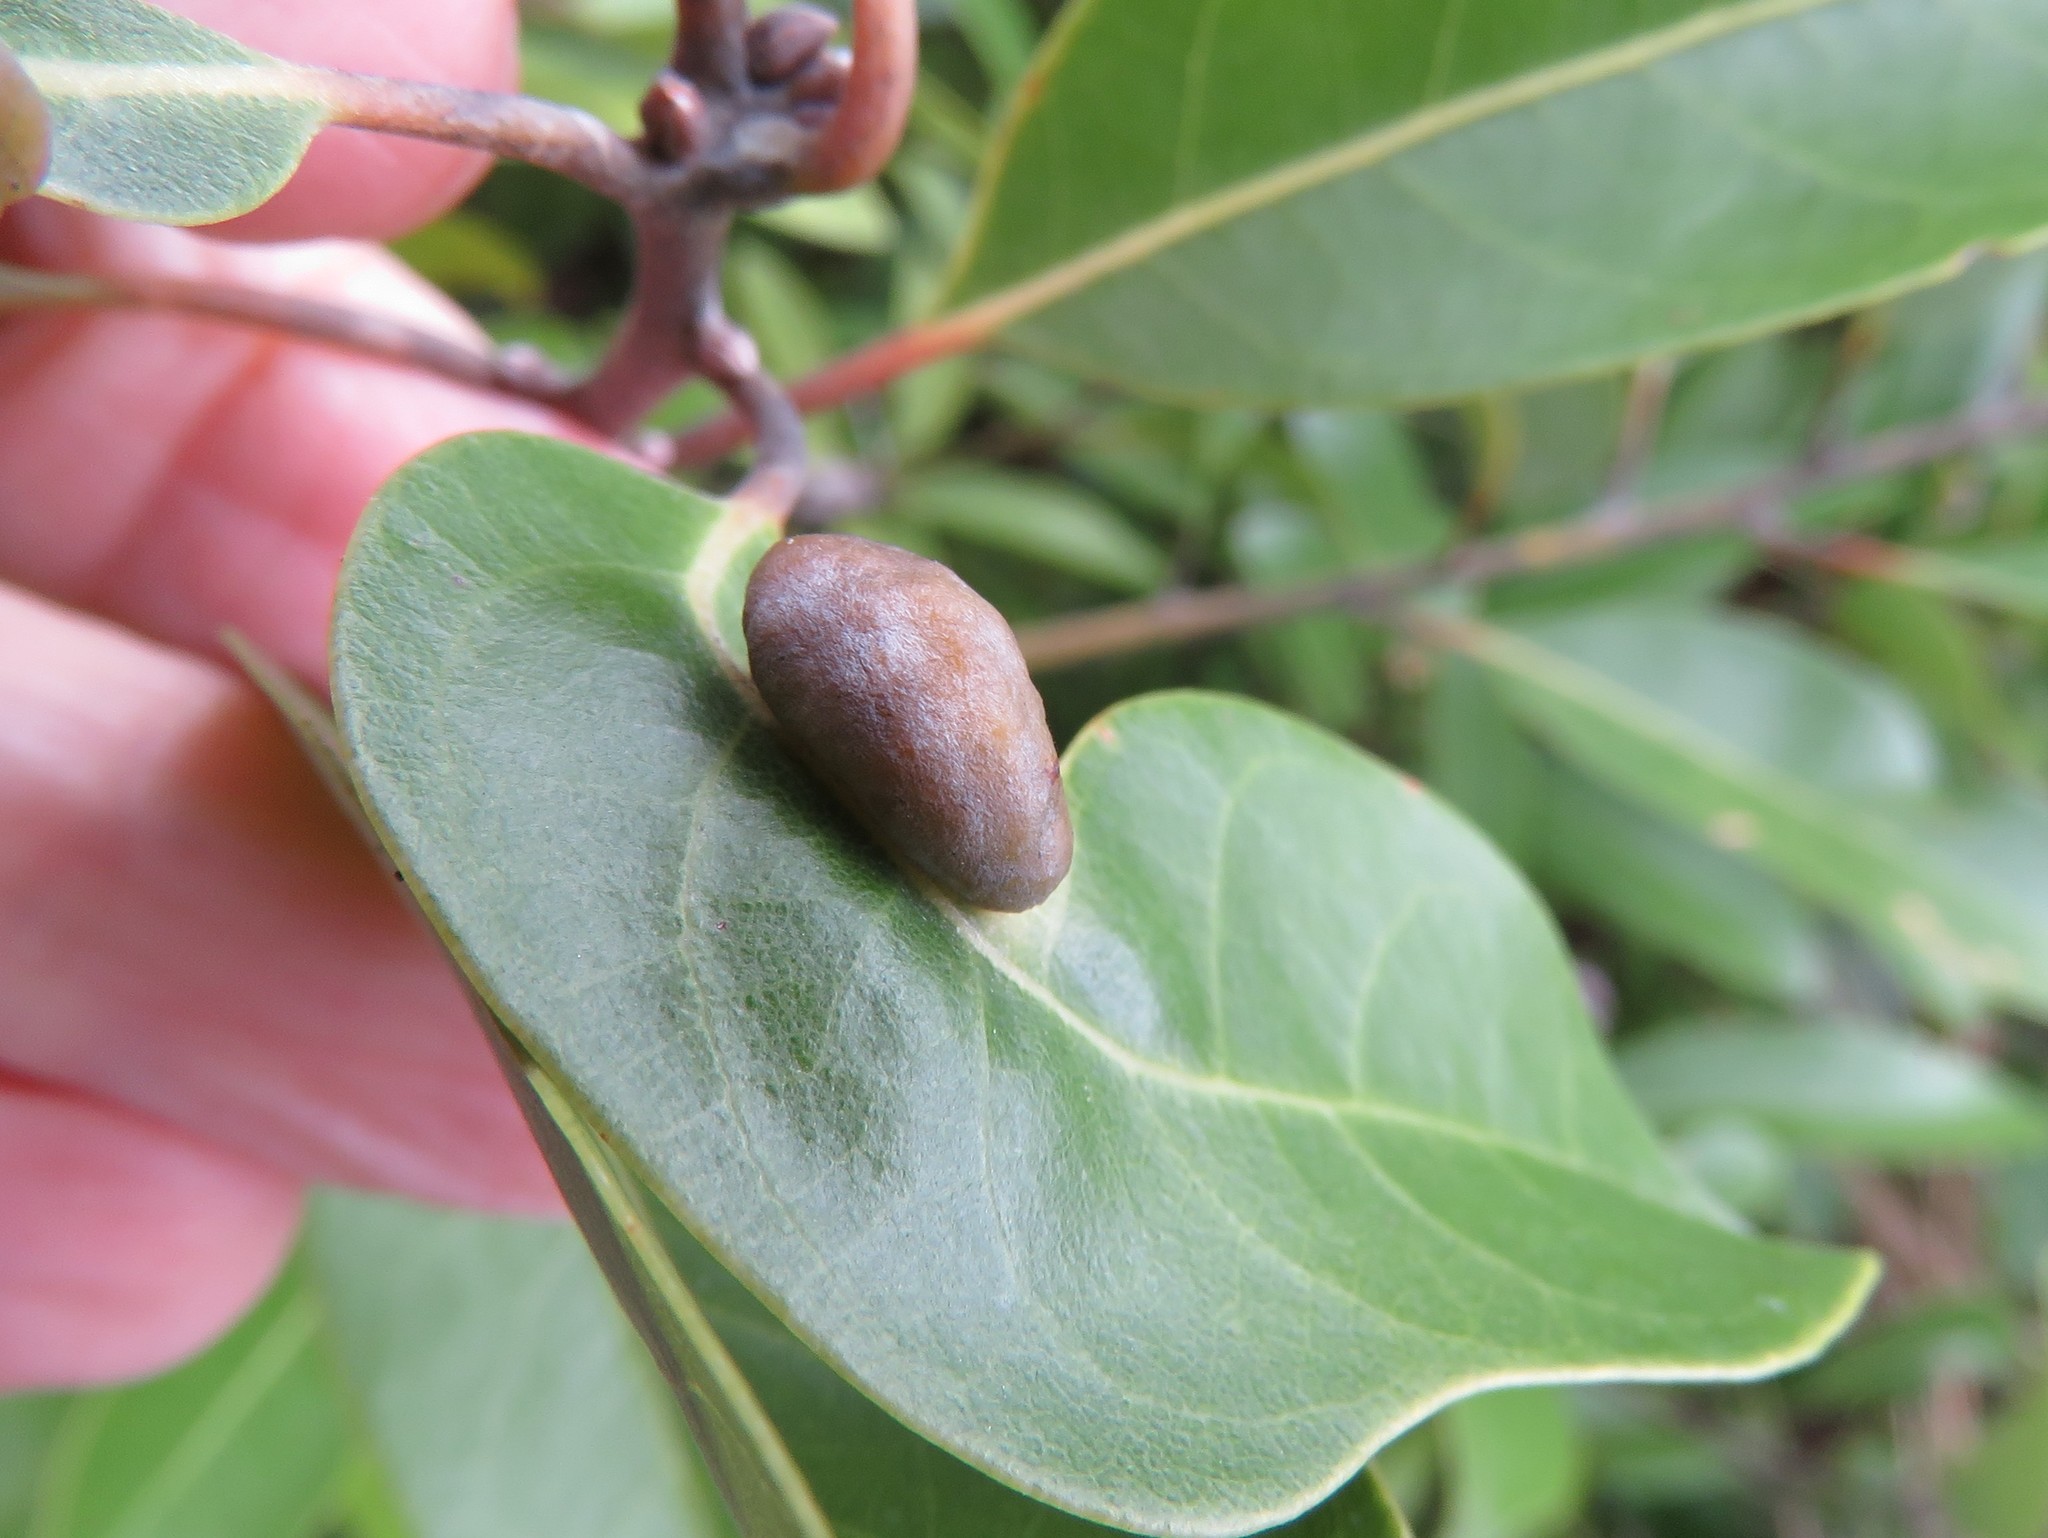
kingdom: Animalia
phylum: Arthropoda
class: Insecta
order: Hemiptera
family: Triozidae
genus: Trioza
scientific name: Trioza magnoliae
